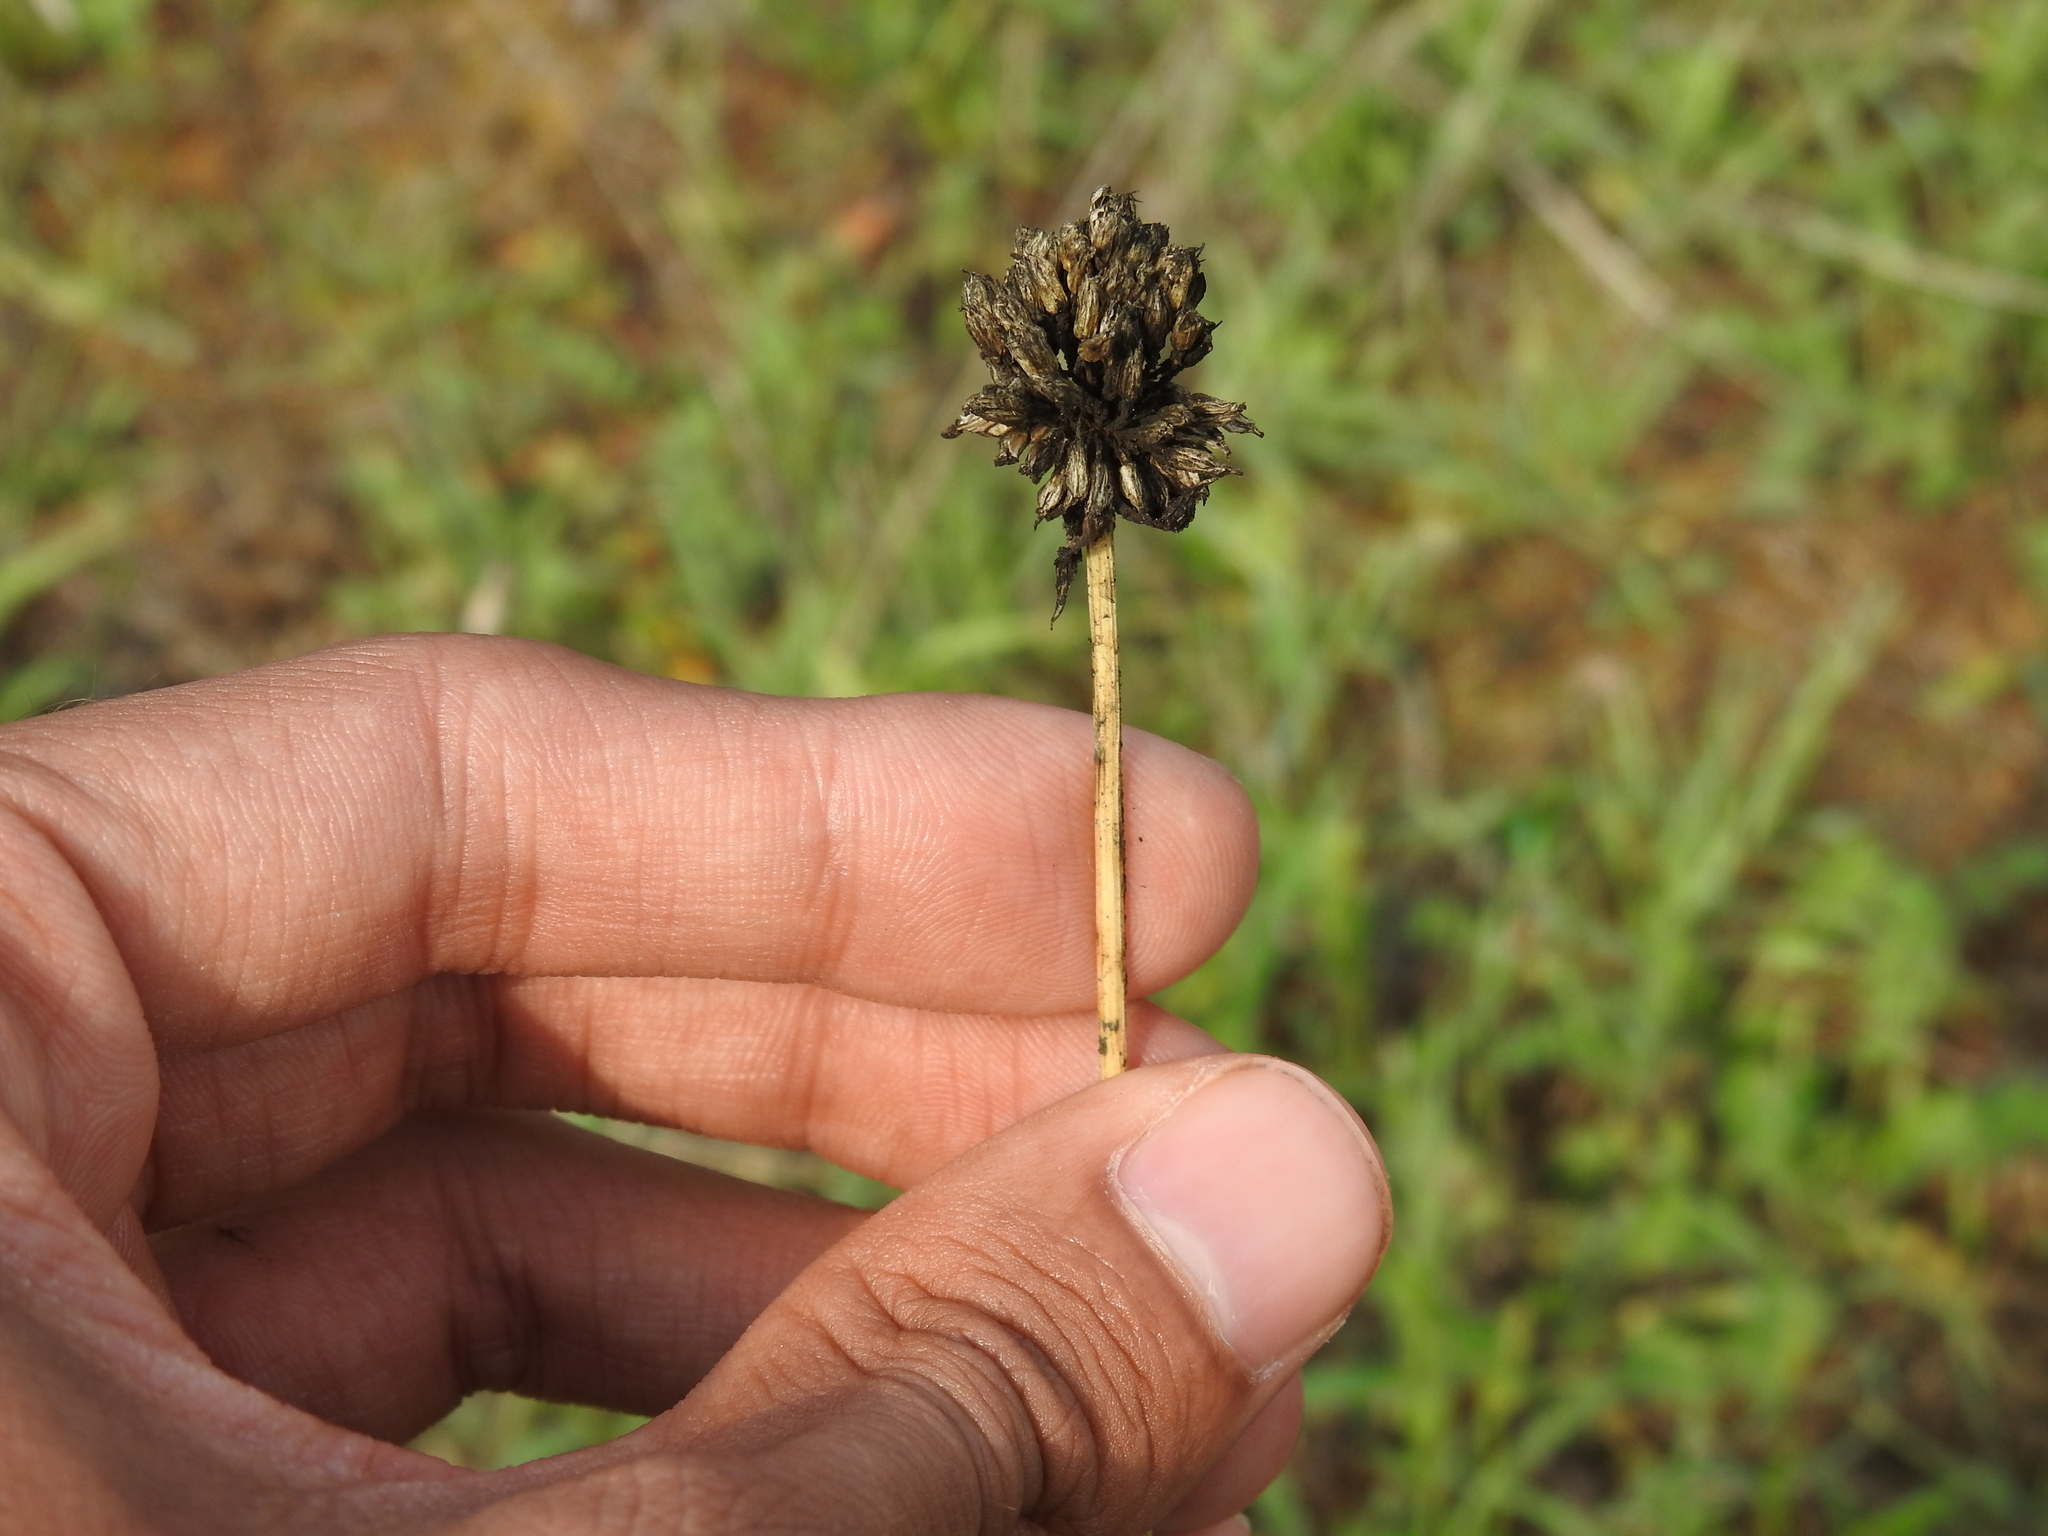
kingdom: Plantae
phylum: Tracheophyta
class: Liliopsida
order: Asparagales
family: Amaryllidaceae
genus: Allium
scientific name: Allium sphaerocephalon
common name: Round-headed leek
